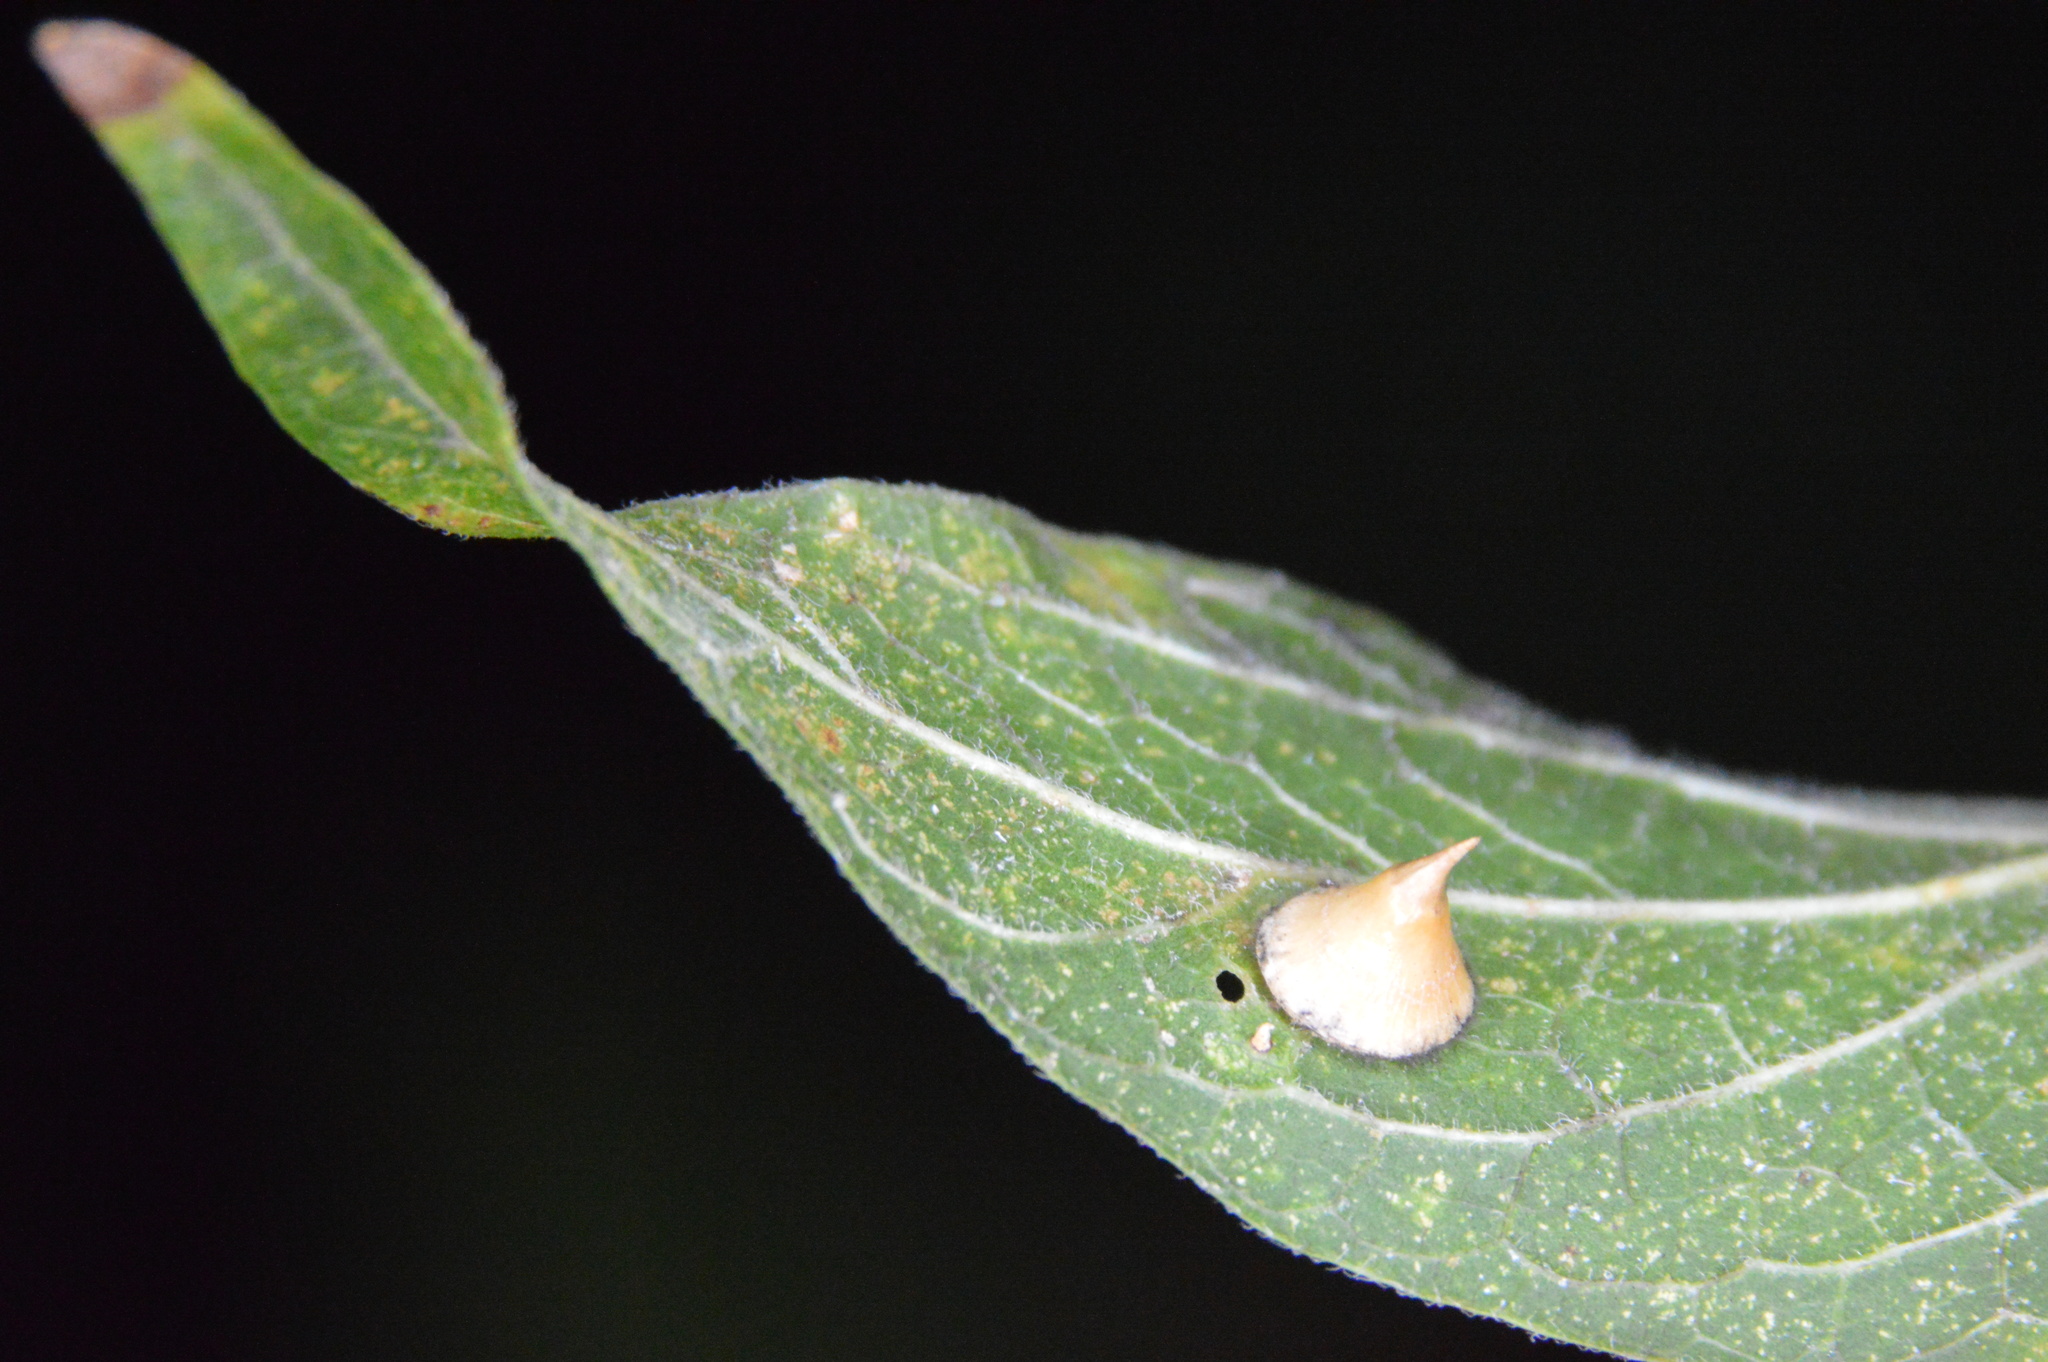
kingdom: Animalia
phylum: Arthropoda
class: Insecta
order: Diptera
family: Cecidomyiidae
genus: Celticecis
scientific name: Celticecis spiniformis
